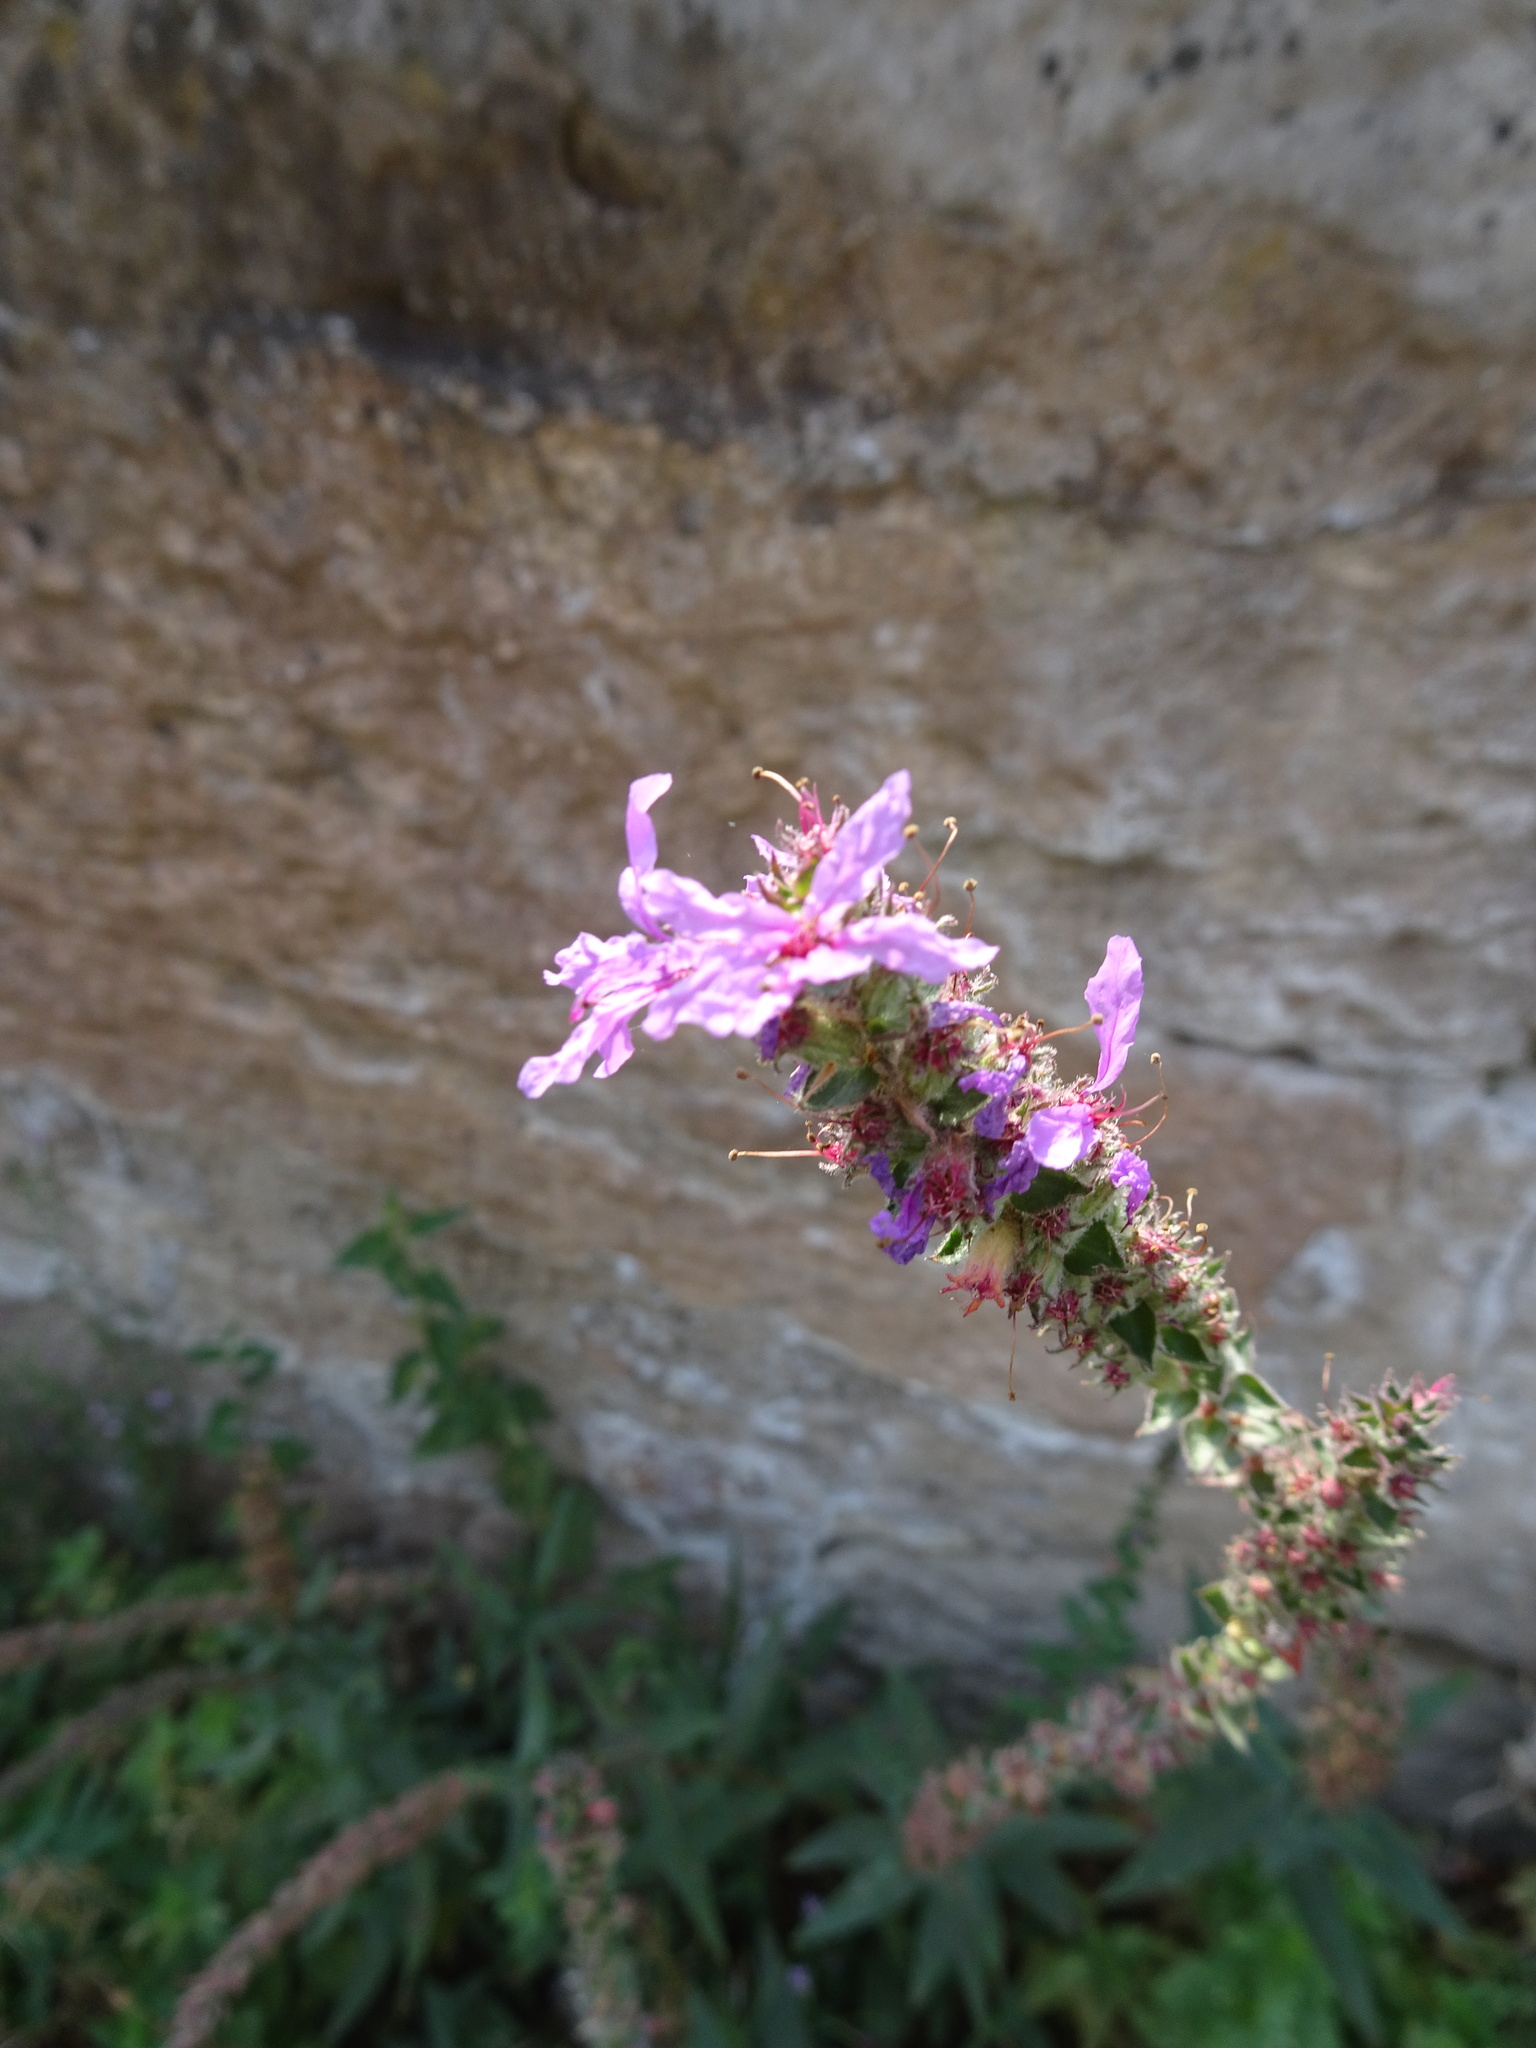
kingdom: Plantae
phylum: Tracheophyta
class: Magnoliopsida
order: Myrtales
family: Lythraceae
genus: Lythrum
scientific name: Lythrum salicaria
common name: Purple loosestrife
